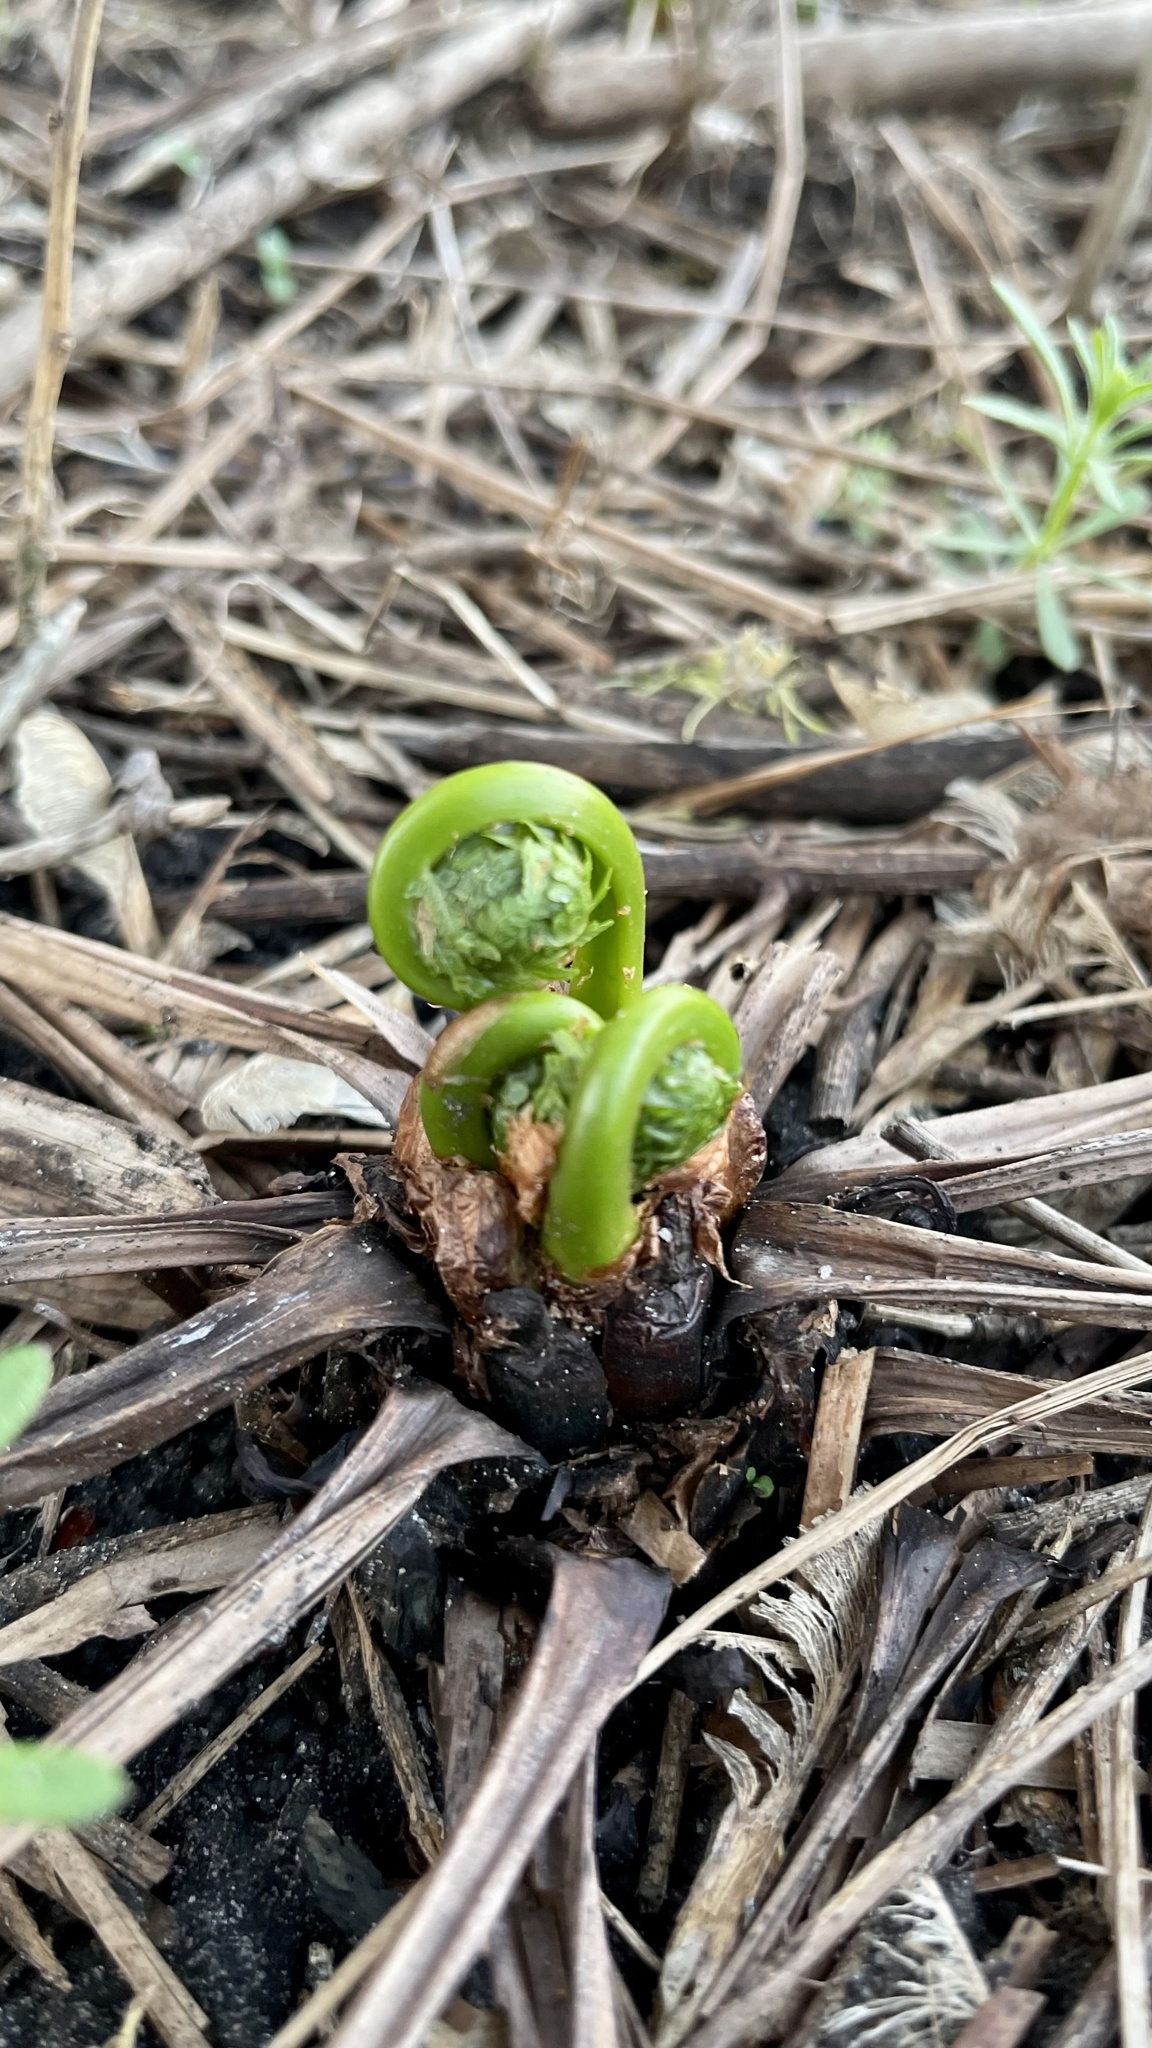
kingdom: Plantae
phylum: Tracheophyta
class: Polypodiopsida
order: Polypodiales
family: Onocleaceae
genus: Matteuccia
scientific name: Matteuccia struthiopteris
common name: Ostrich fern
